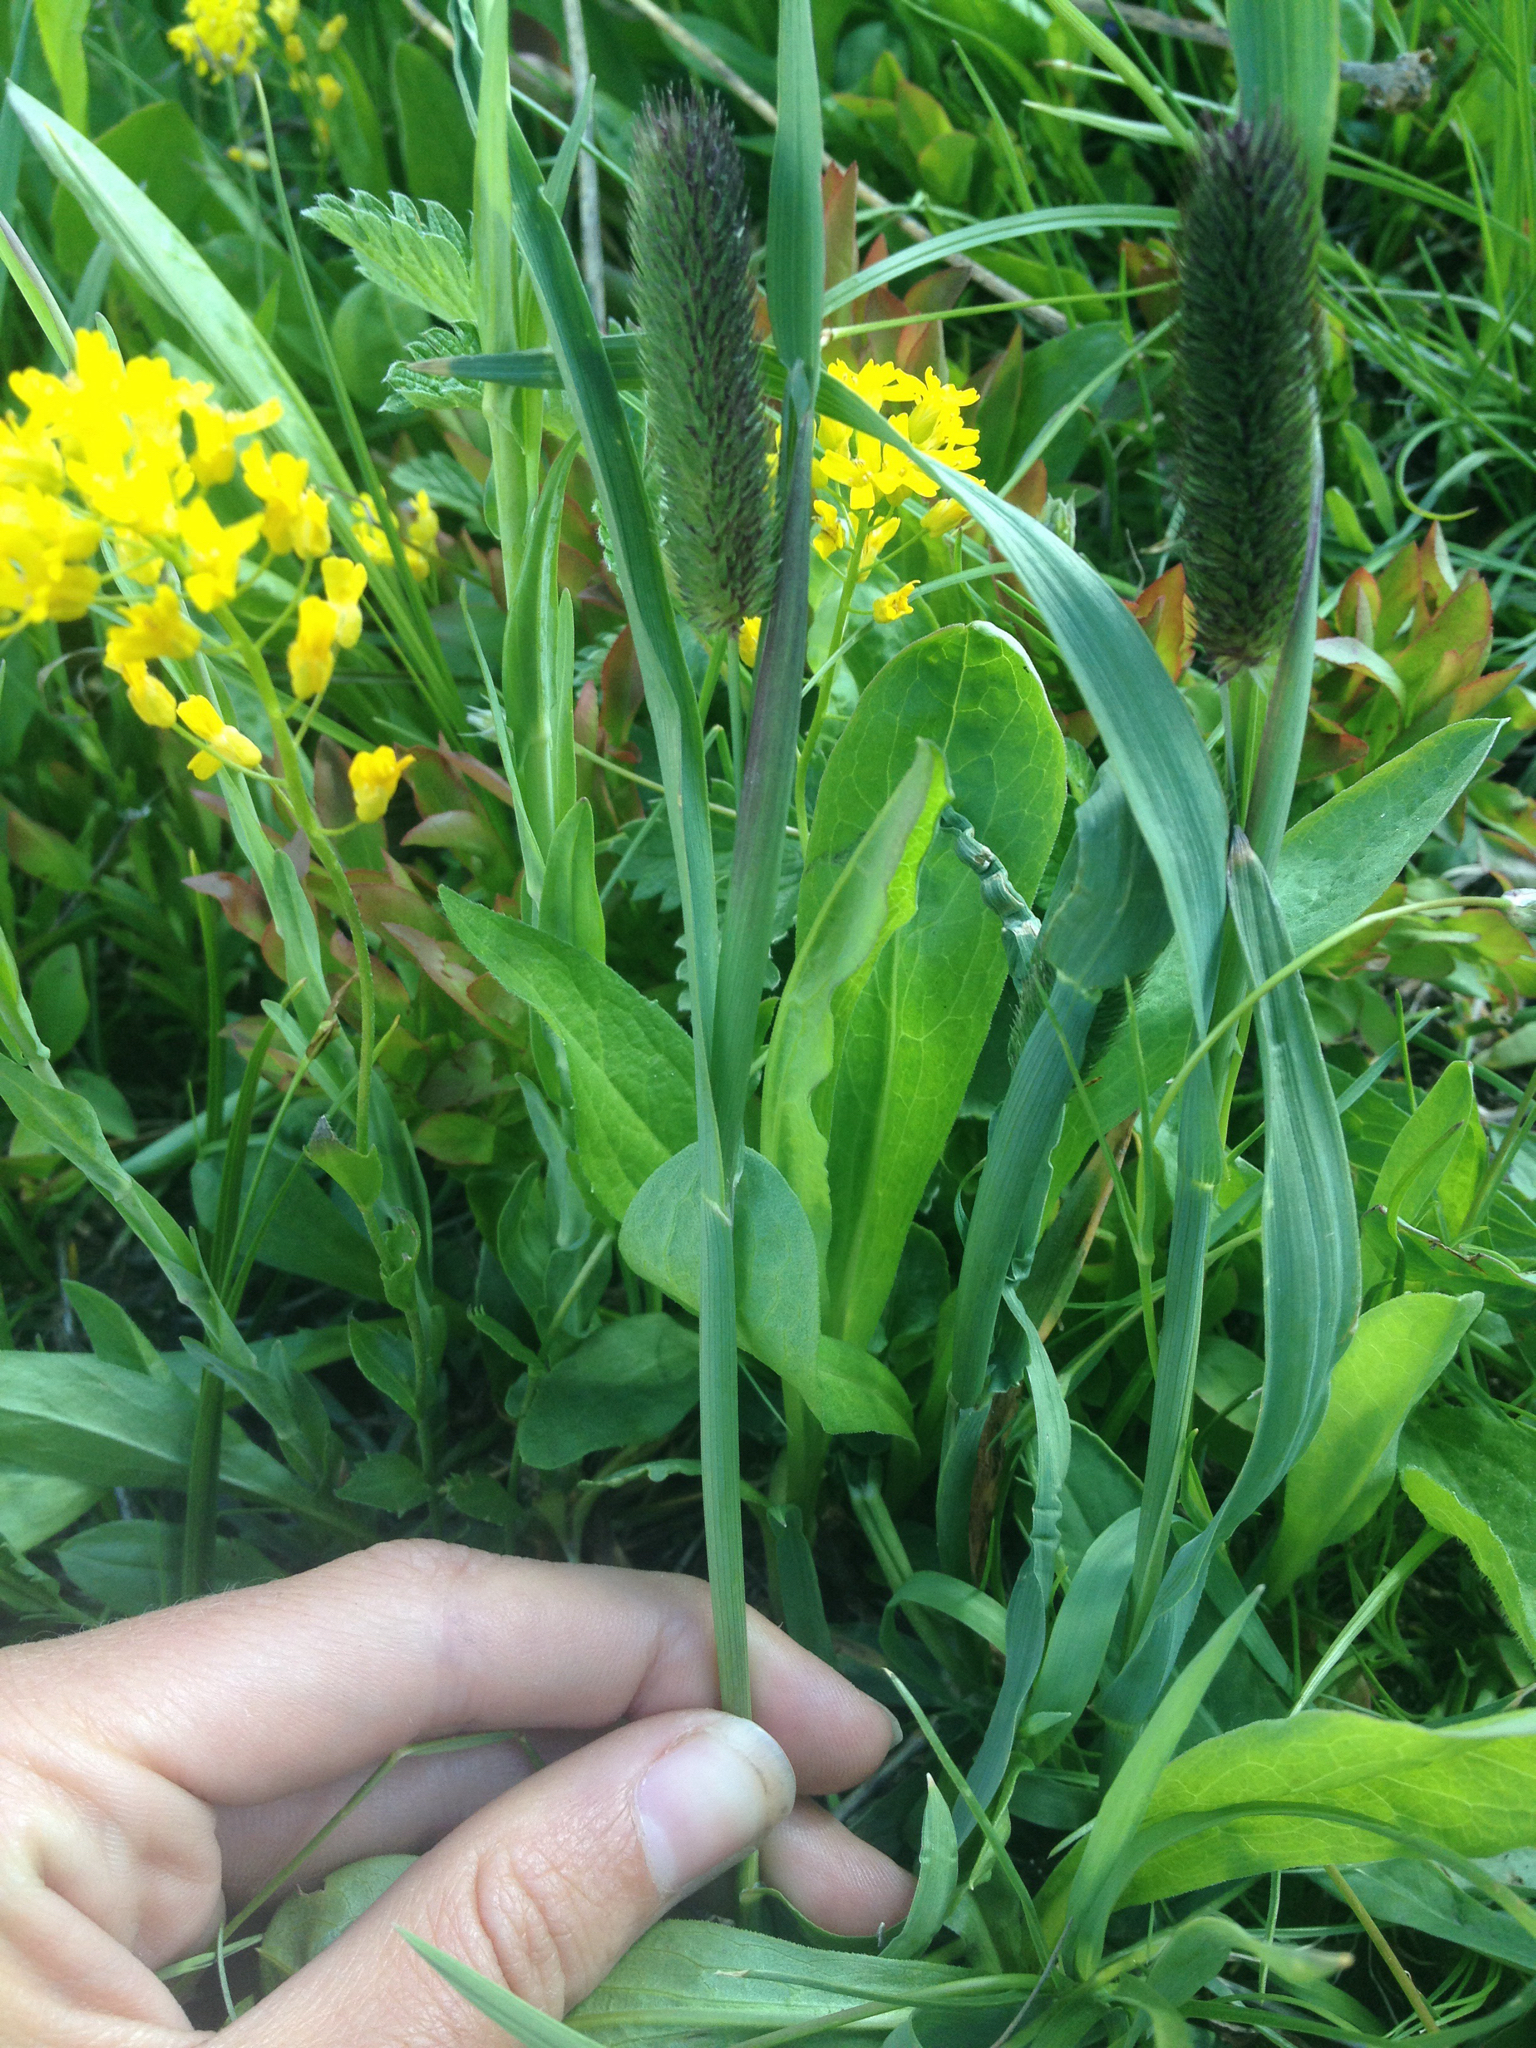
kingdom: Plantae
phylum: Tracheophyta
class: Liliopsida
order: Poales
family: Poaceae
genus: Phleum
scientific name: Phleum pratense
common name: Timothy grass
